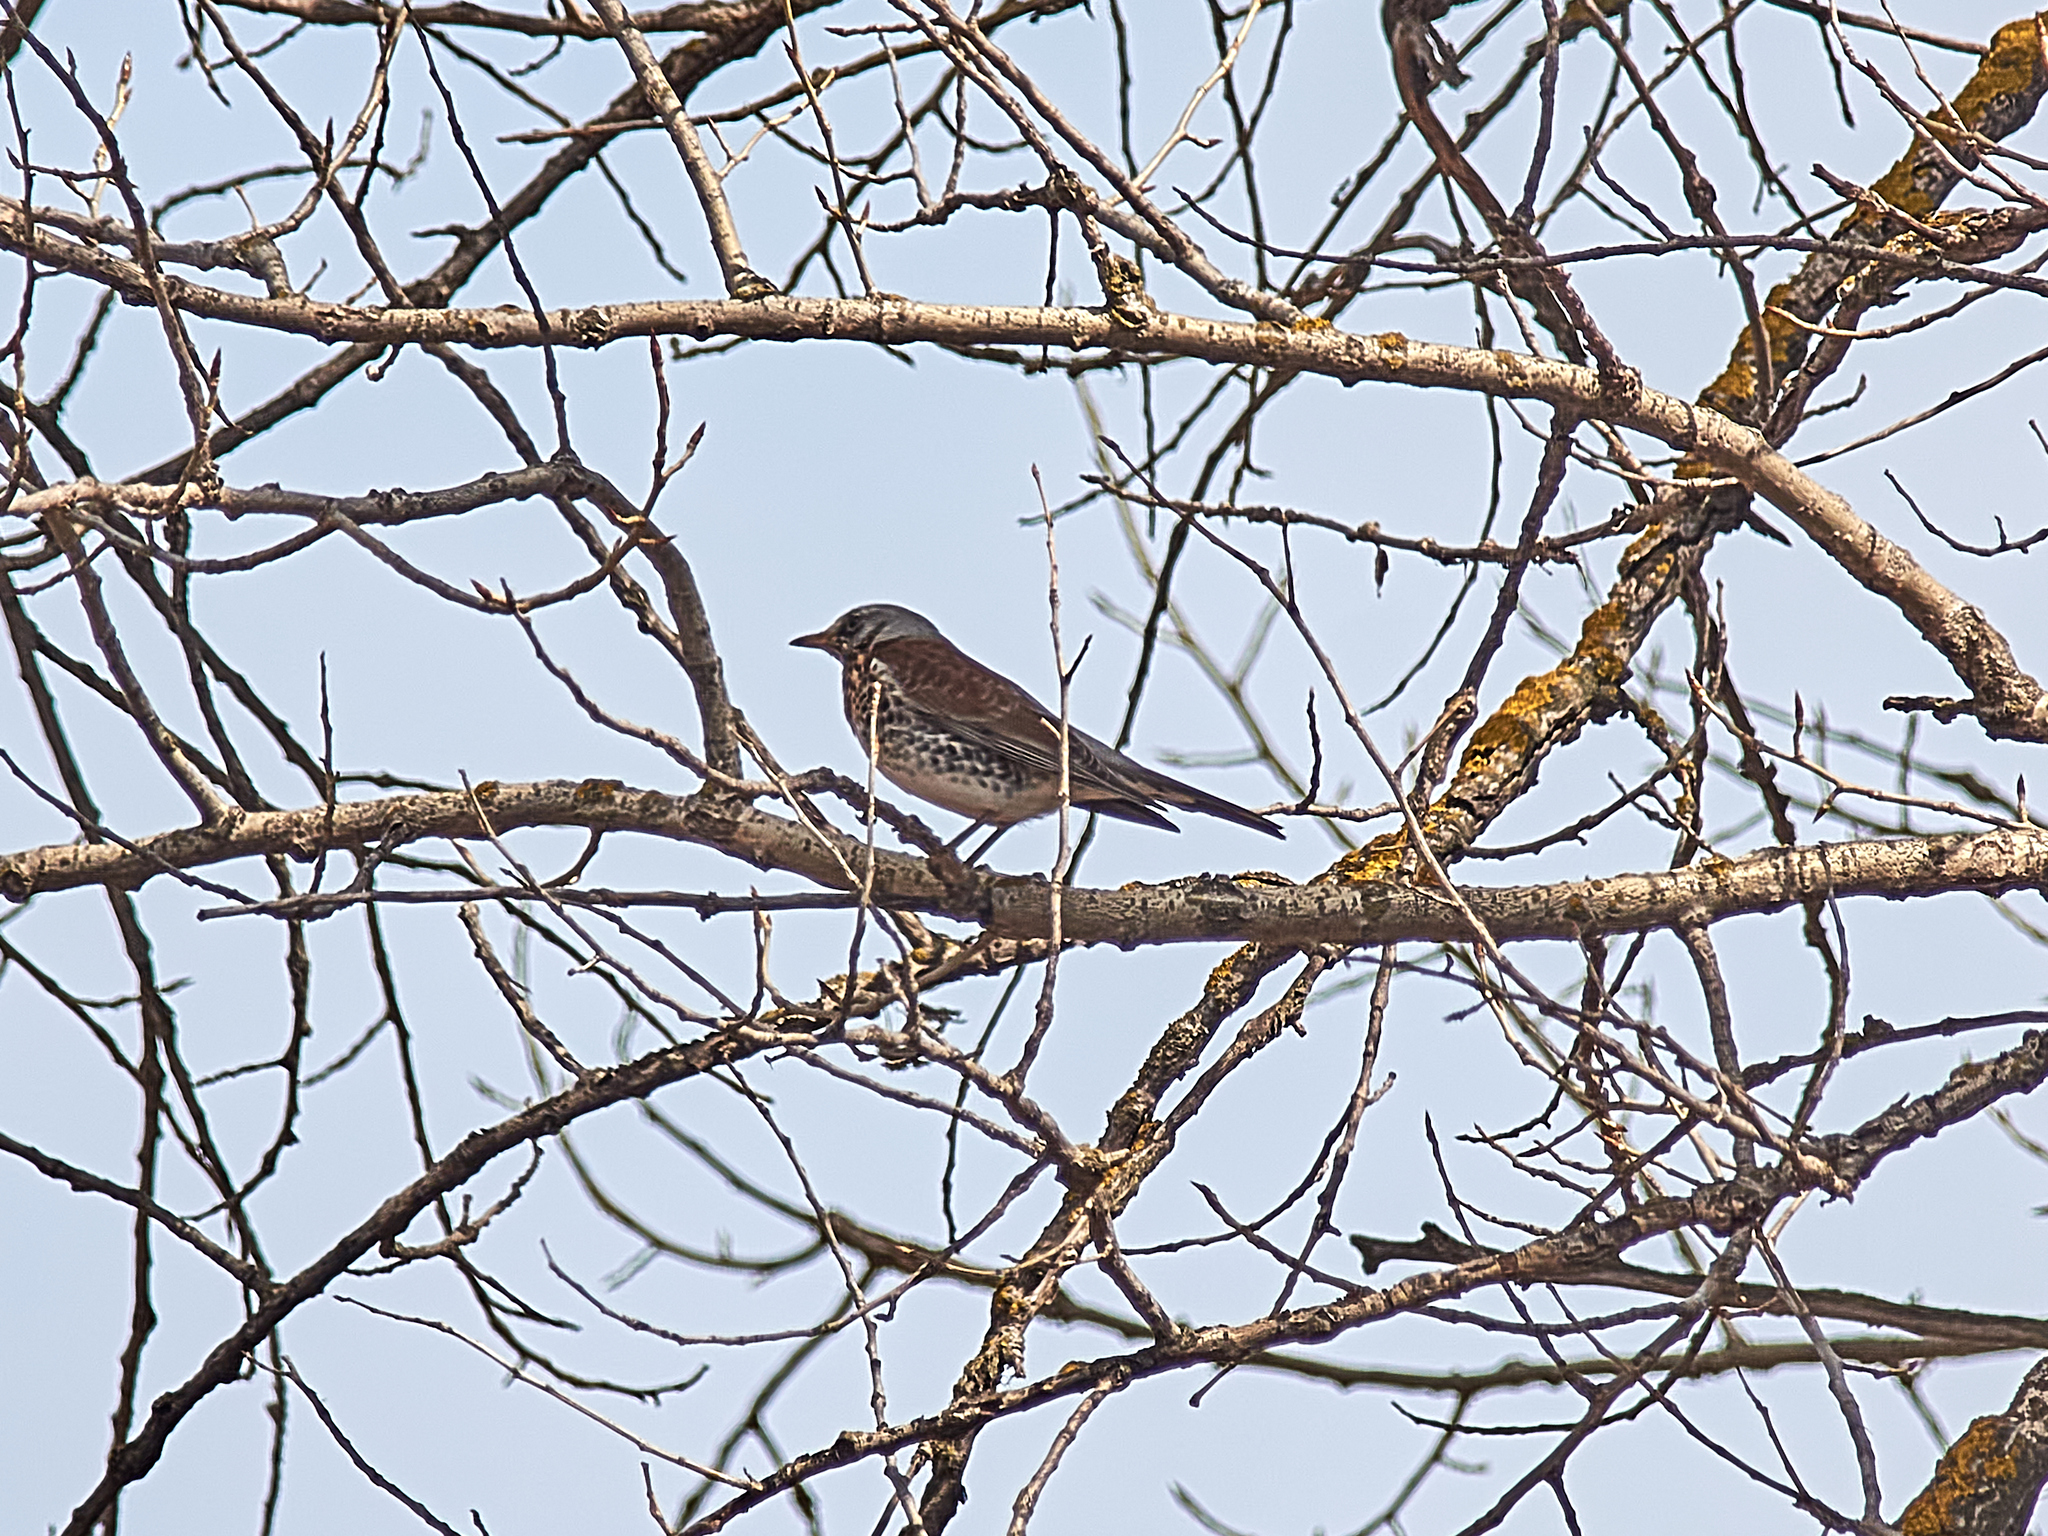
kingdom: Animalia
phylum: Chordata
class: Aves
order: Passeriformes
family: Turdidae
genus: Turdus
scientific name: Turdus pilaris
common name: Fieldfare
